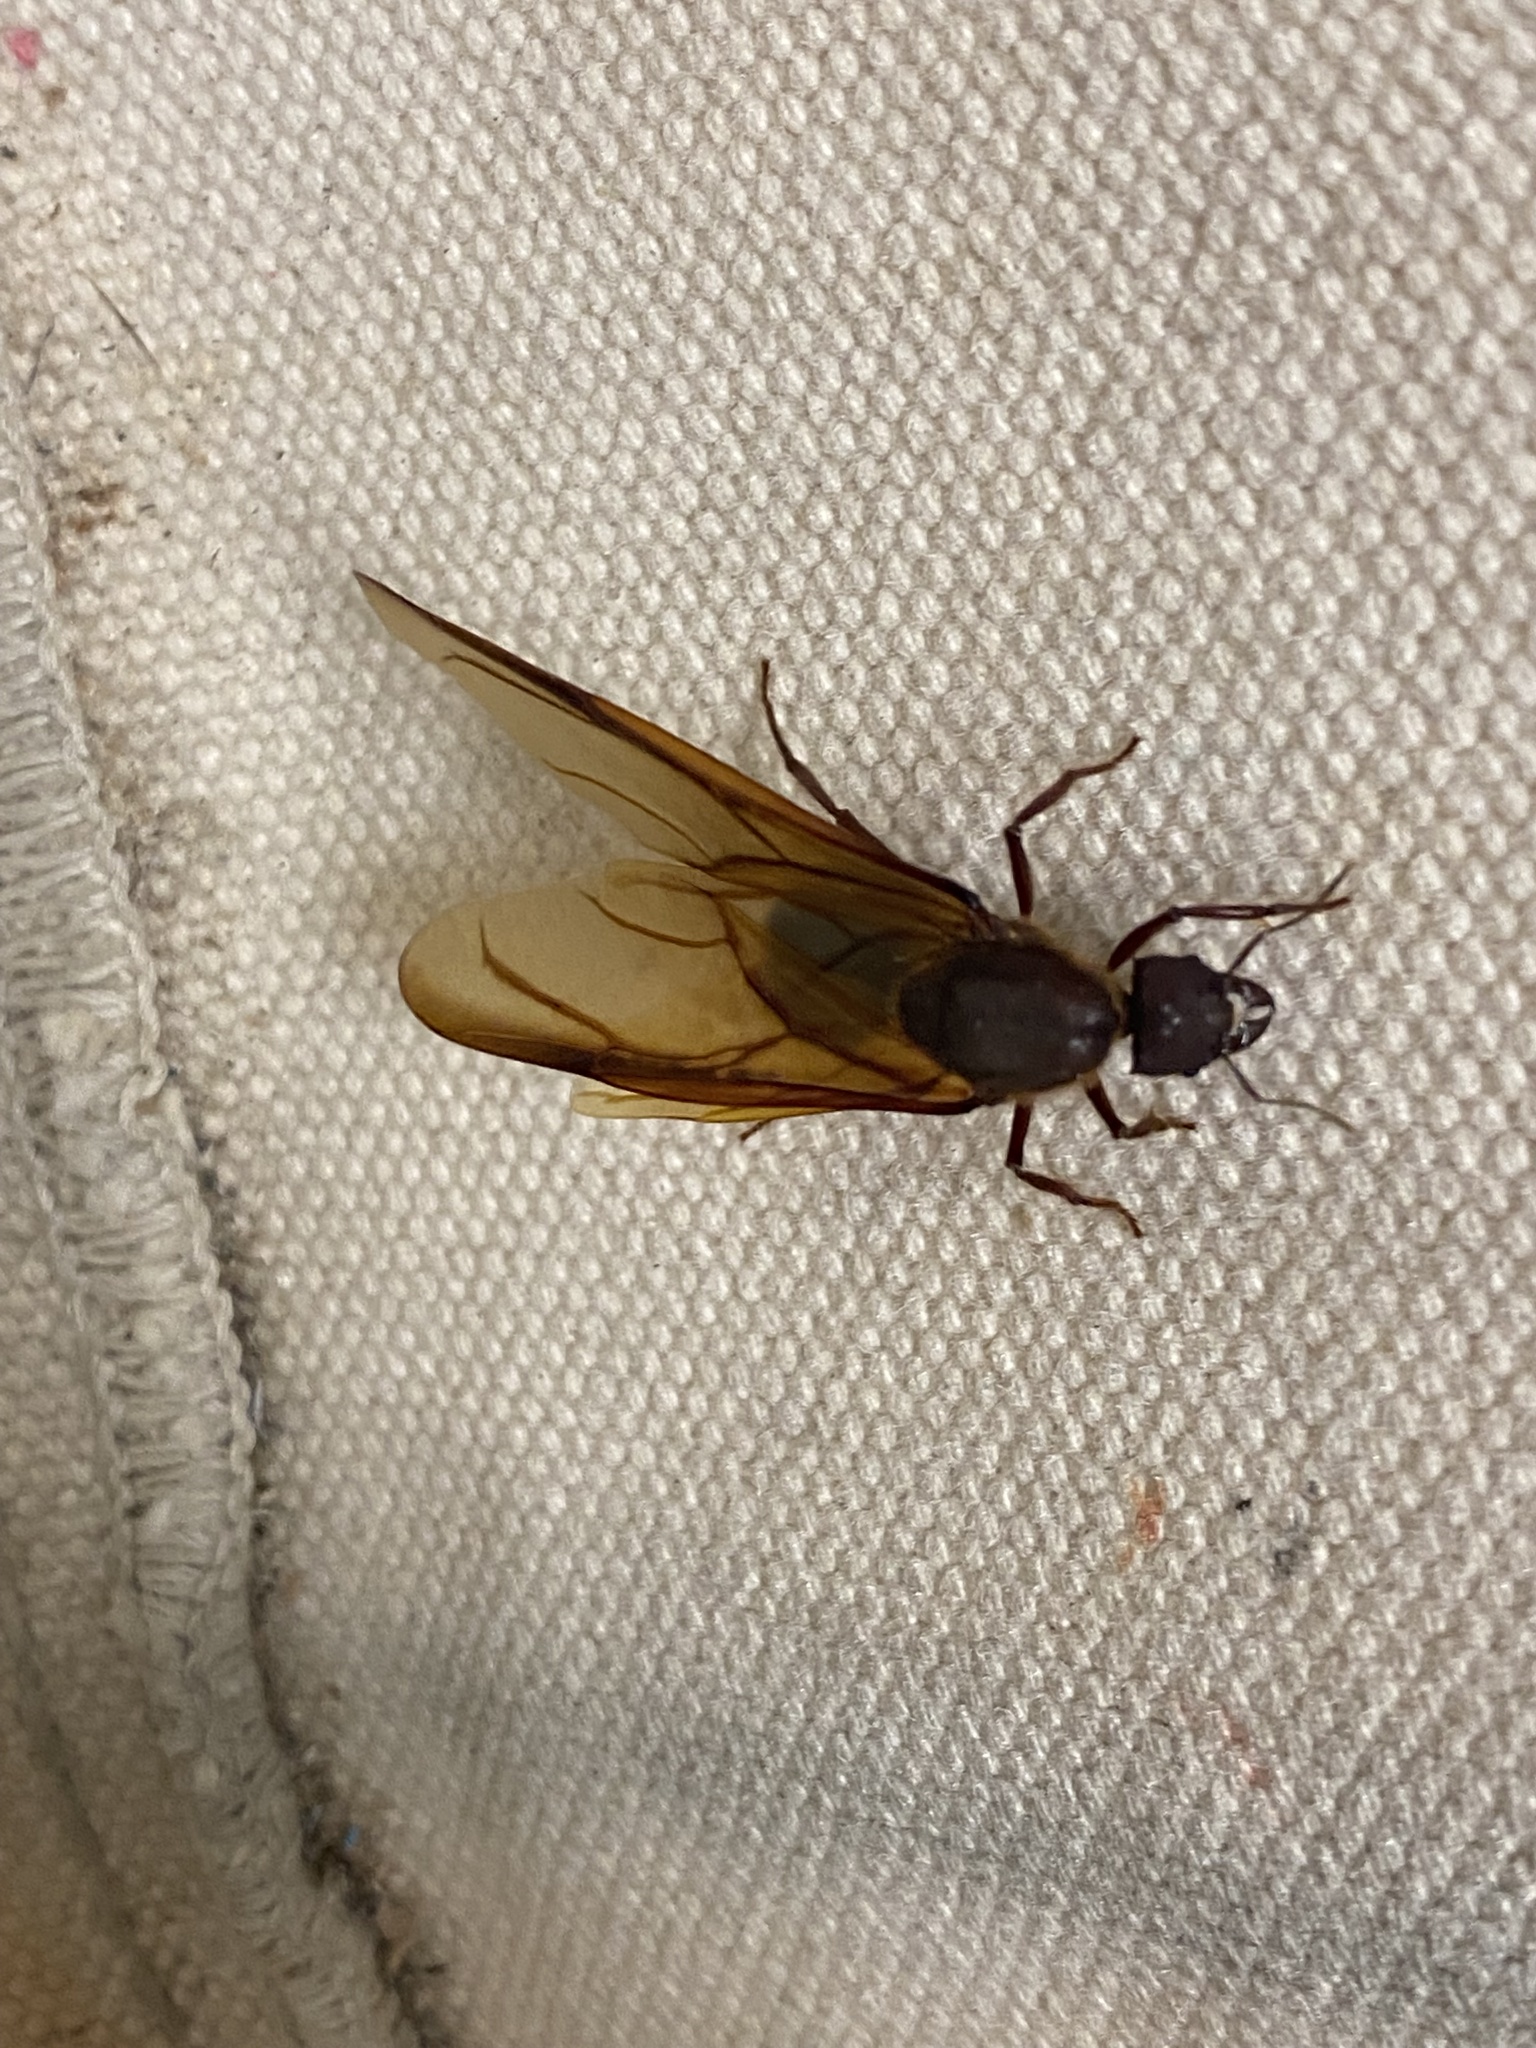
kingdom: Animalia
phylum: Arthropoda
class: Insecta
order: Hymenoptera
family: Formicidae
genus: Atta
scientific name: Atta texana
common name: Texas leafcutting ant
